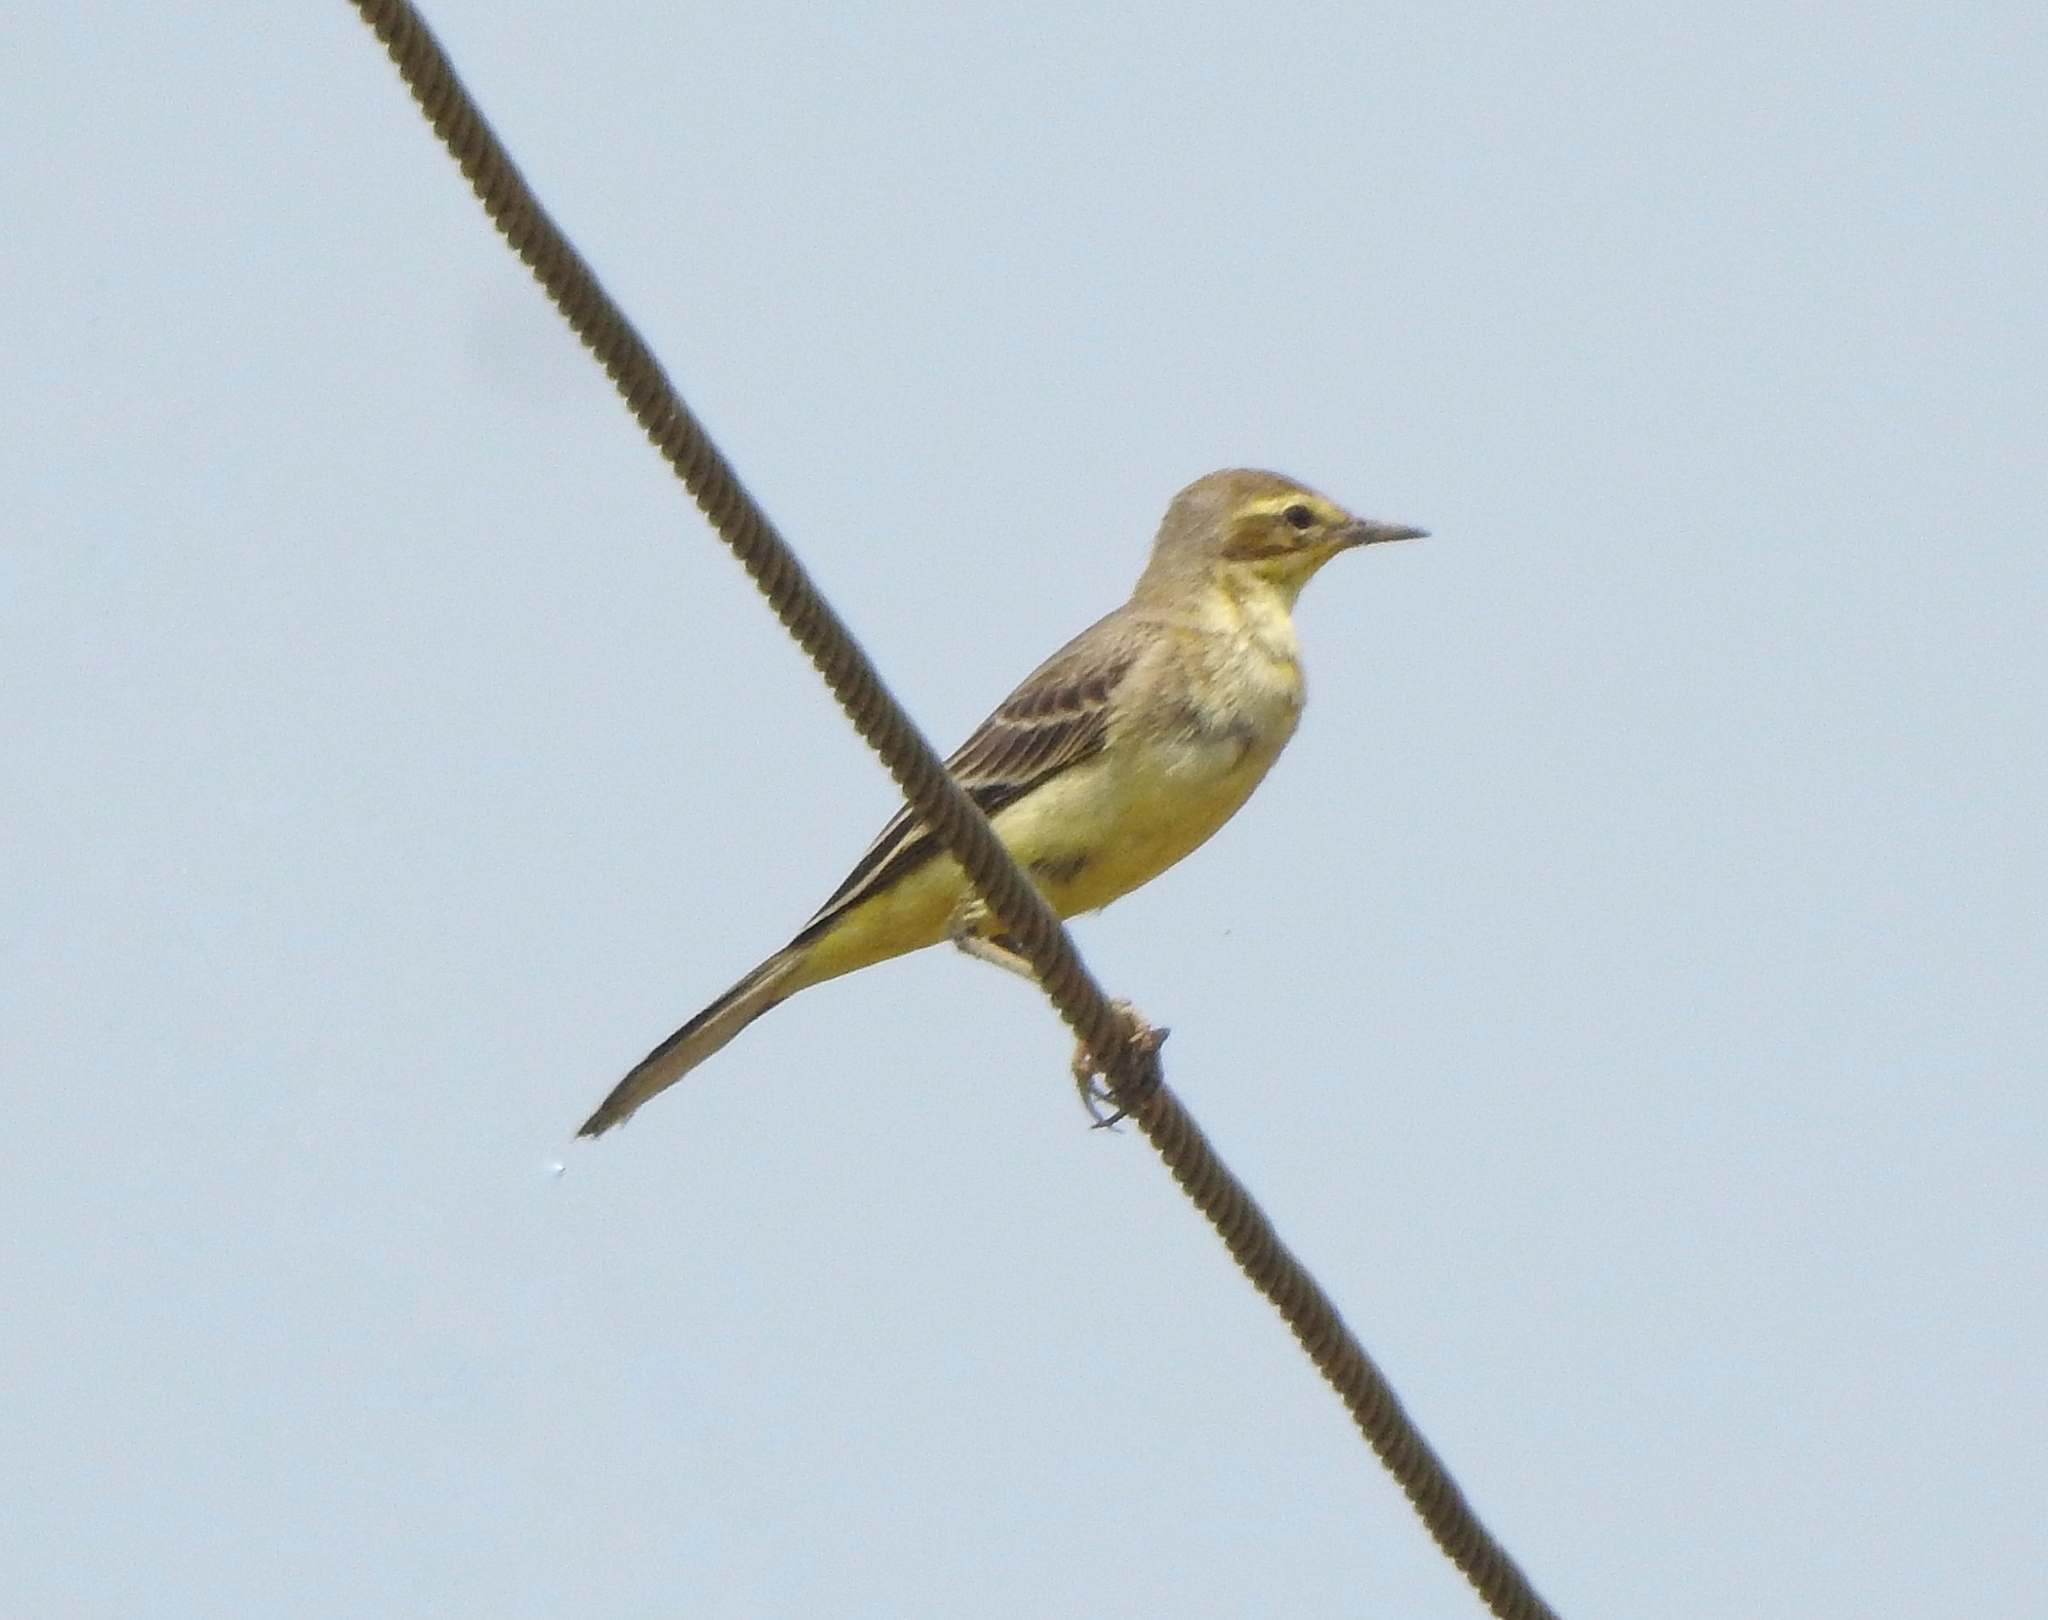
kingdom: Animalia
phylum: Chordata
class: Aves
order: Passeriformes
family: Motacillidae
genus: Motacilla
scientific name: Motacilla flava
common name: Western yellow wagtail
